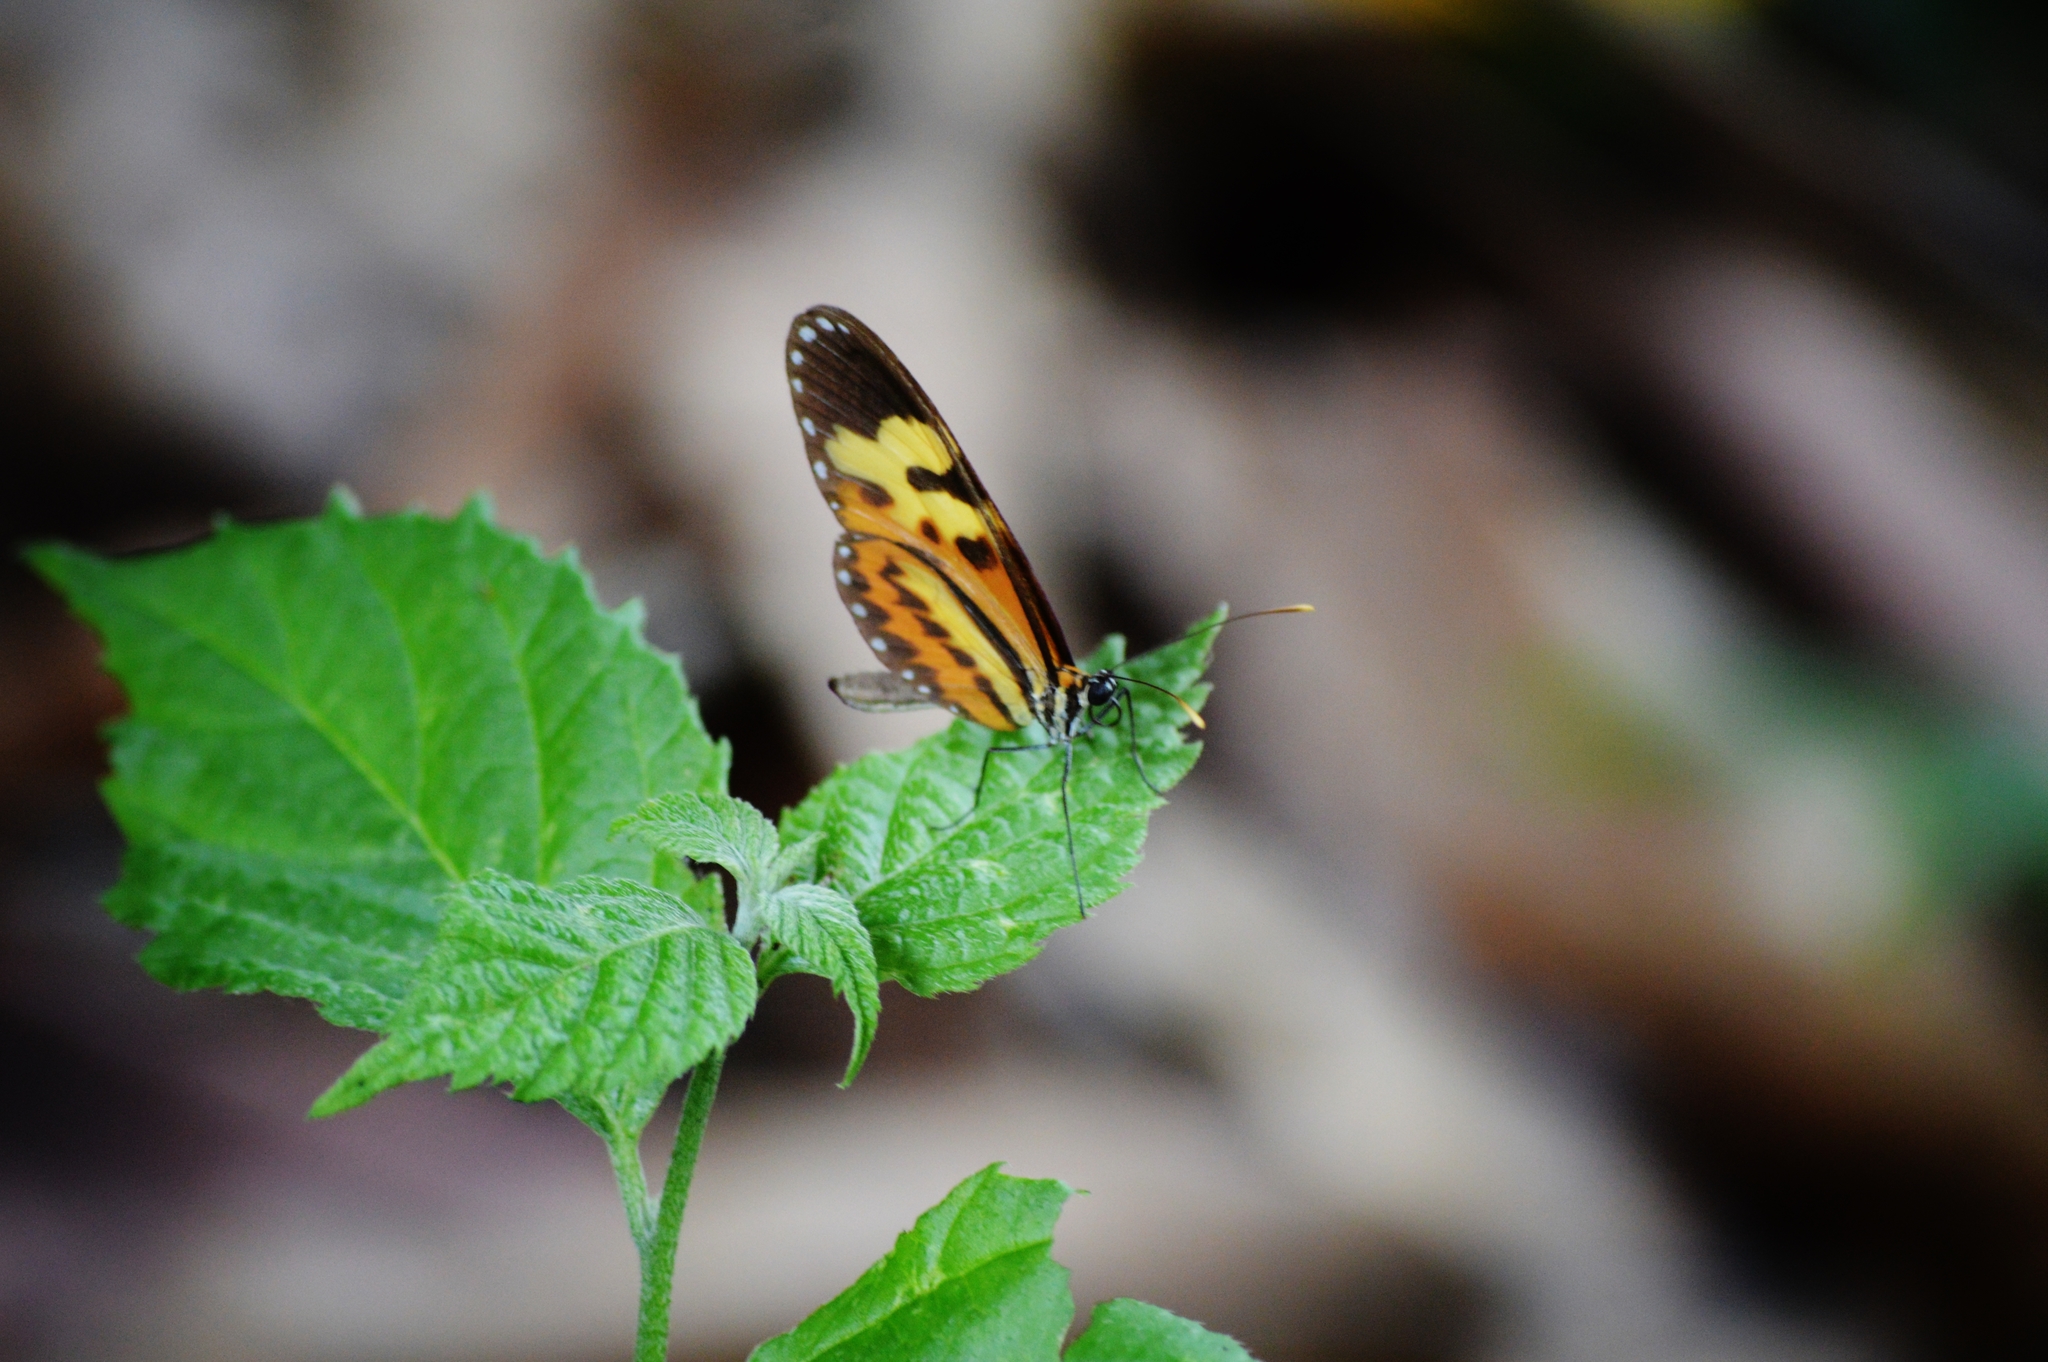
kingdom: Animalia
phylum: Arthropoda
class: Insecta
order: Lepidoptera
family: Nymphalidae
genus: Mechanitis
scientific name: Mechanitis polymnia
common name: Disturbed tigerwing
